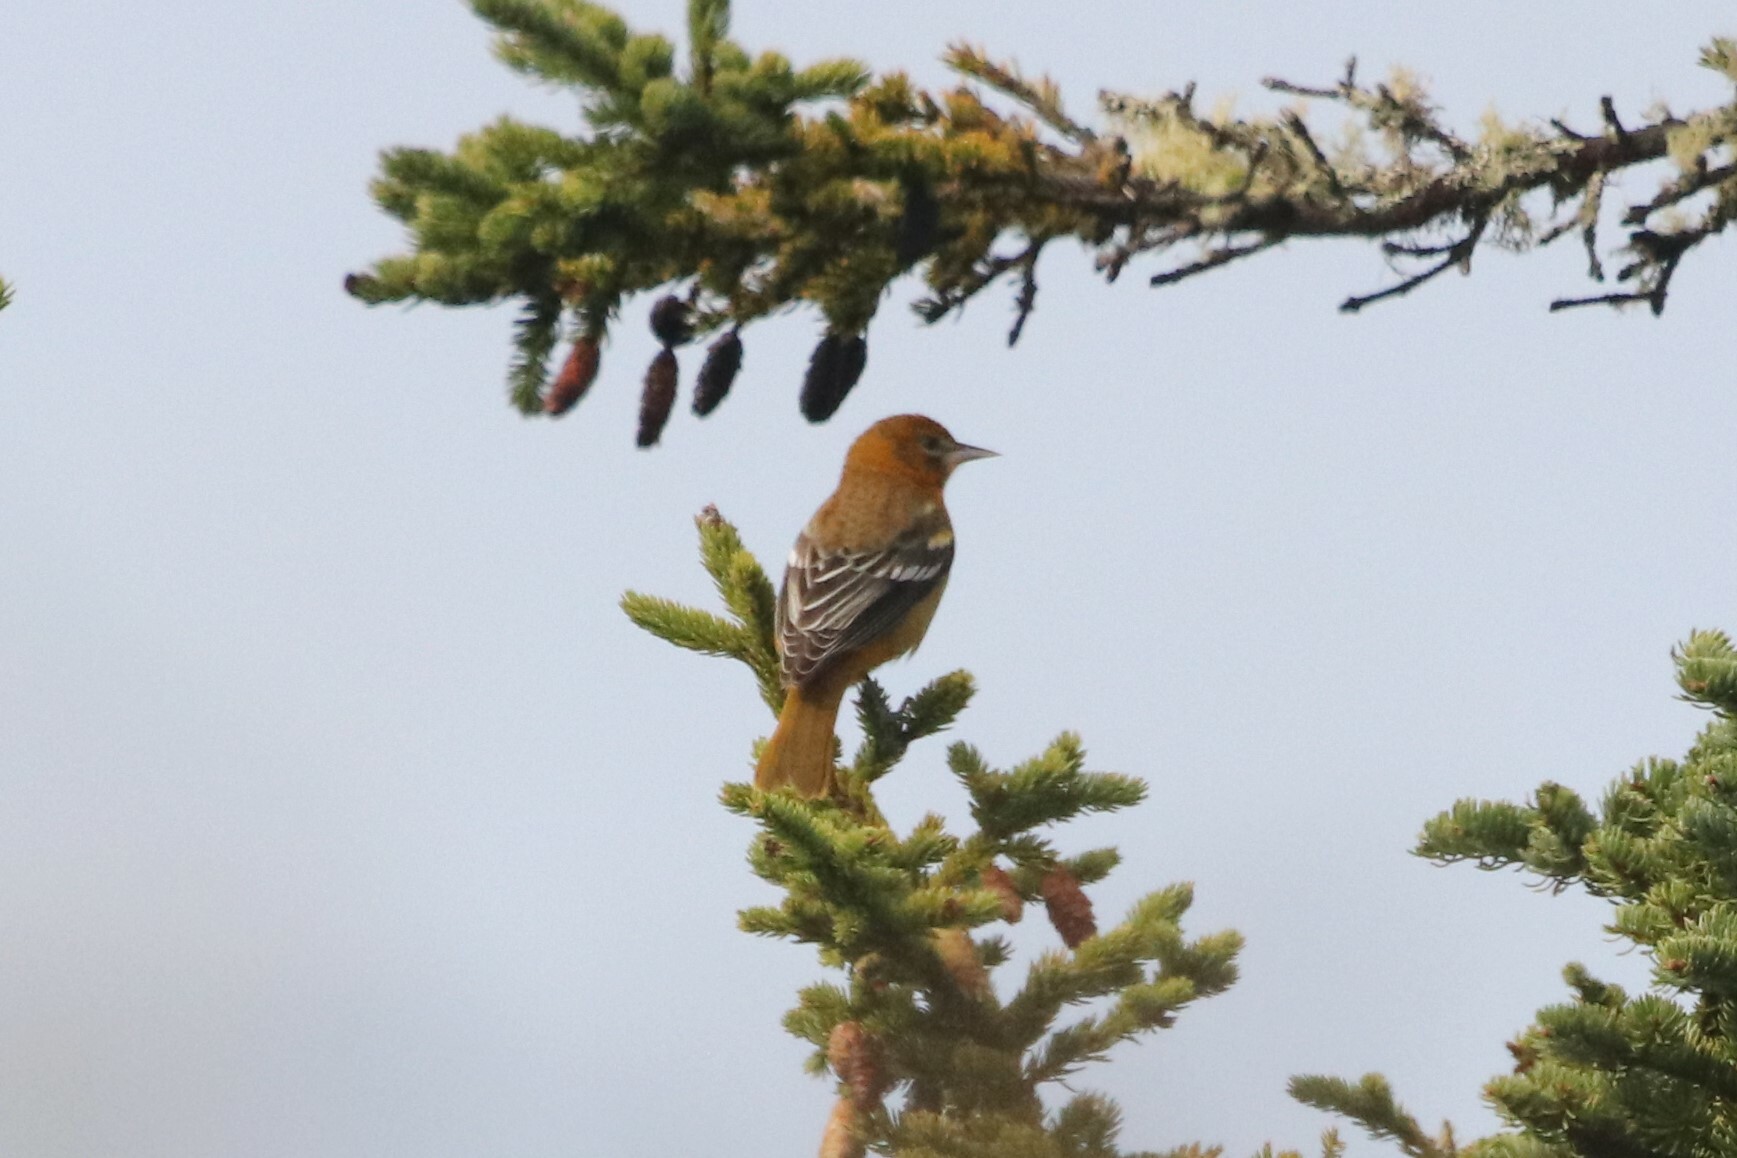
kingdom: Animalia
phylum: Chordata
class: Aves
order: Passeriformes
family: Icteridae
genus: Icterus
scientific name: Icterus galbula
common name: Baltimore oriole
